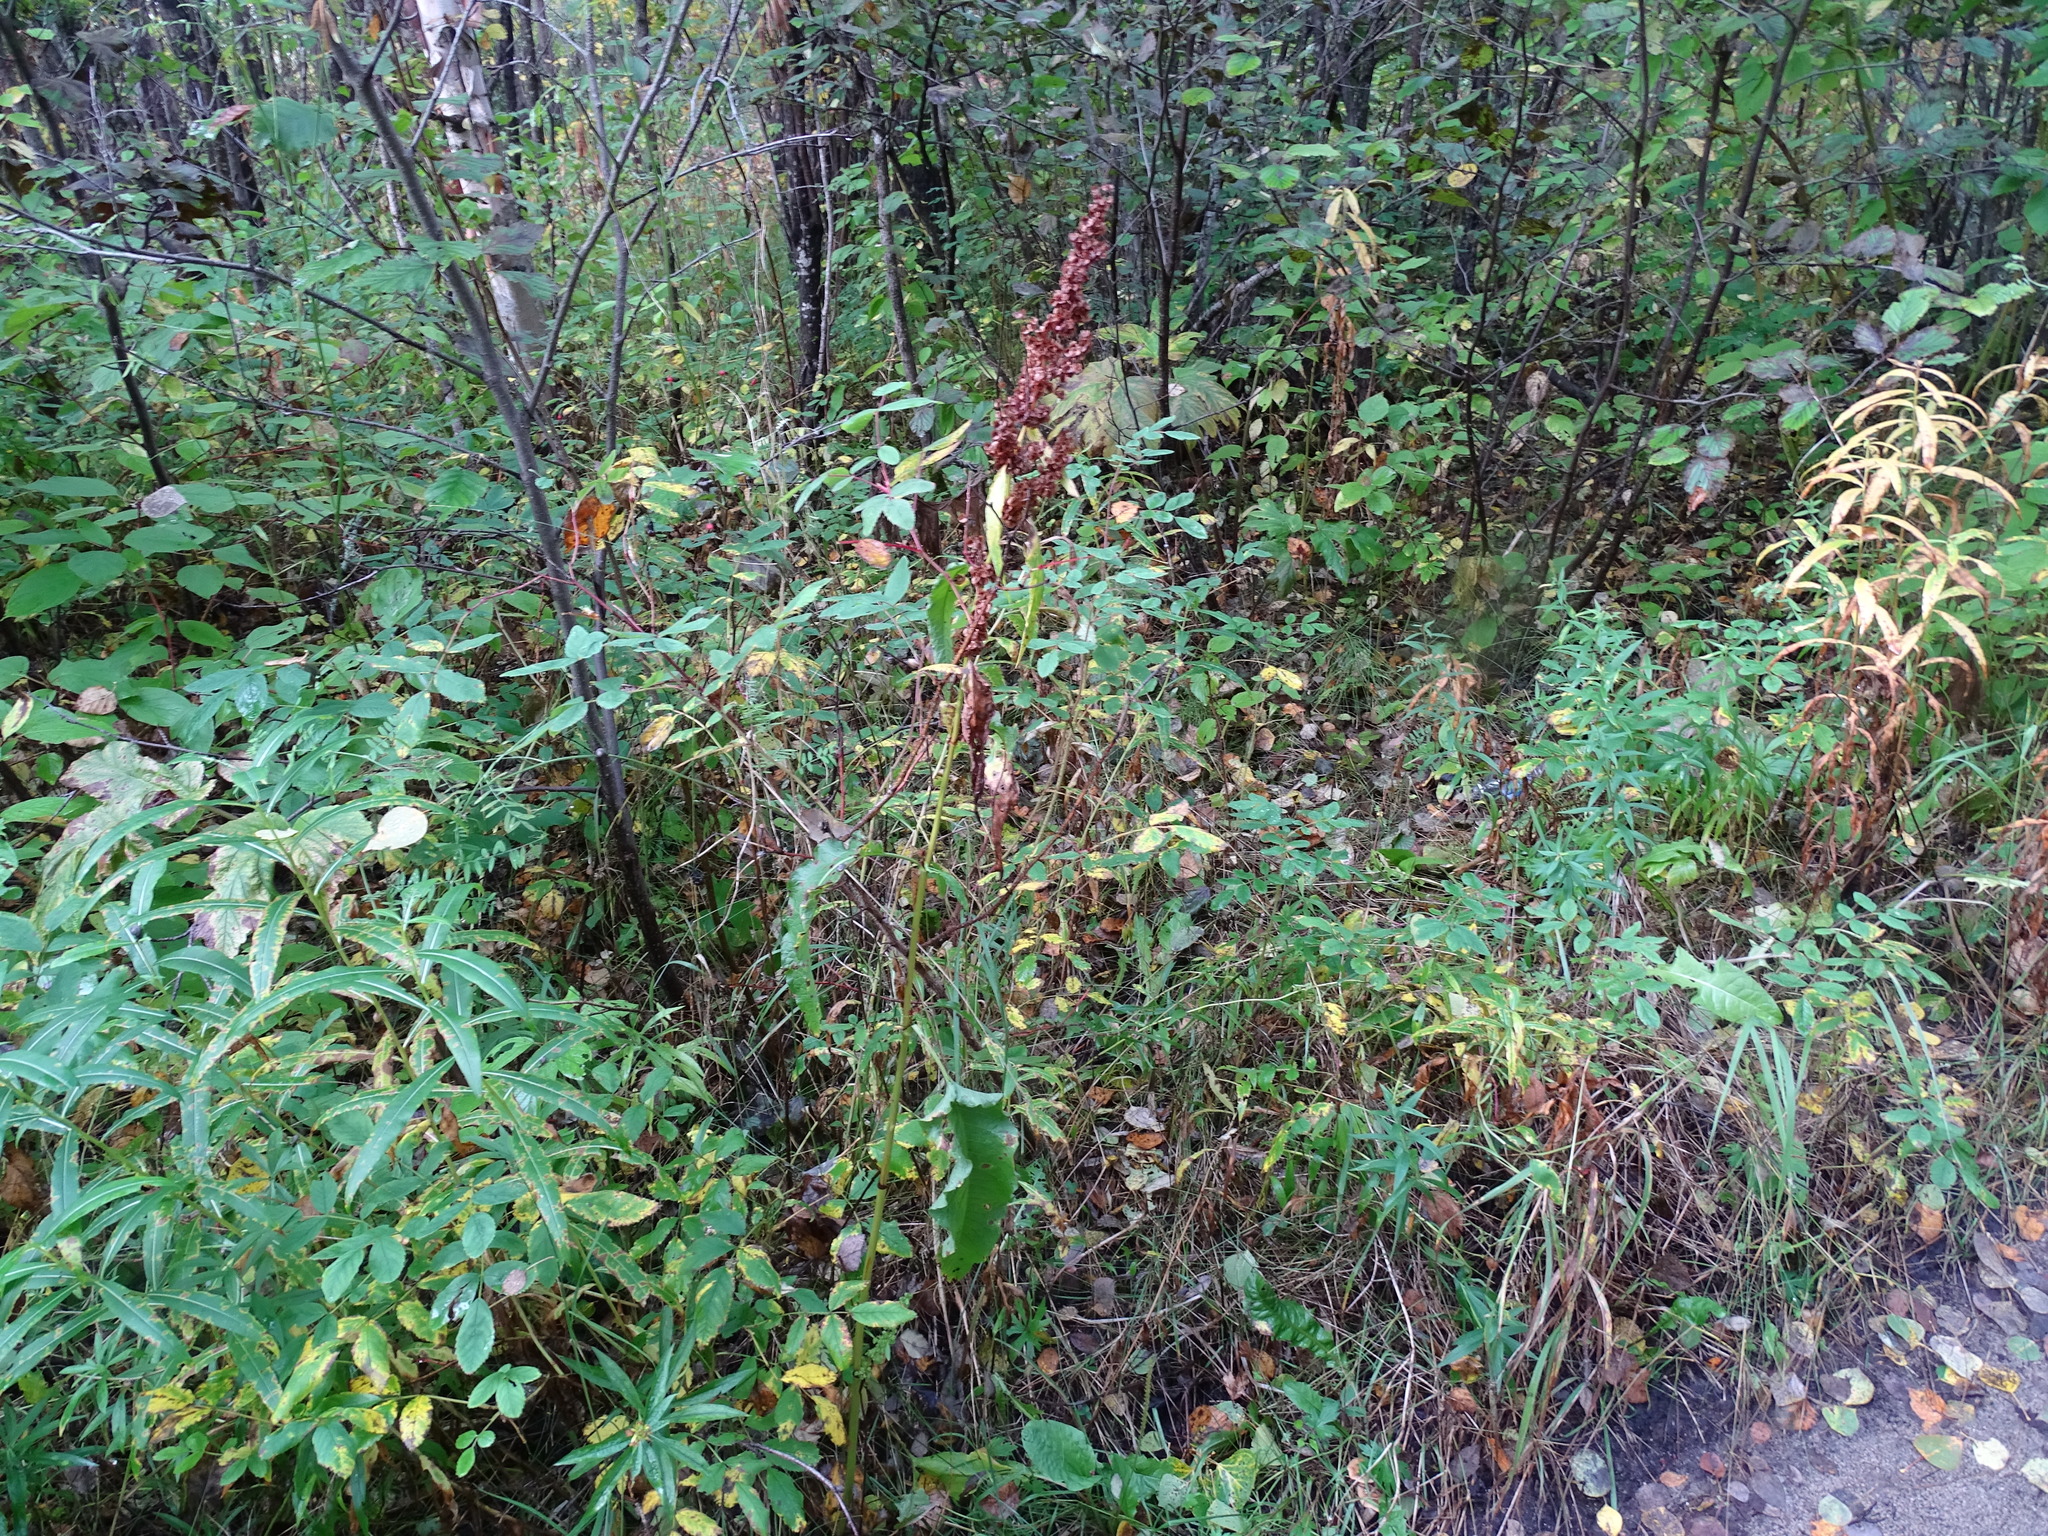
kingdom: Plantae
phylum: Tracheophyta
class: Magnoliopsida
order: Caryophyllales
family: Polygonaceae
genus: Rumex
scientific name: Rumex longifolius
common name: Dooryard dock
